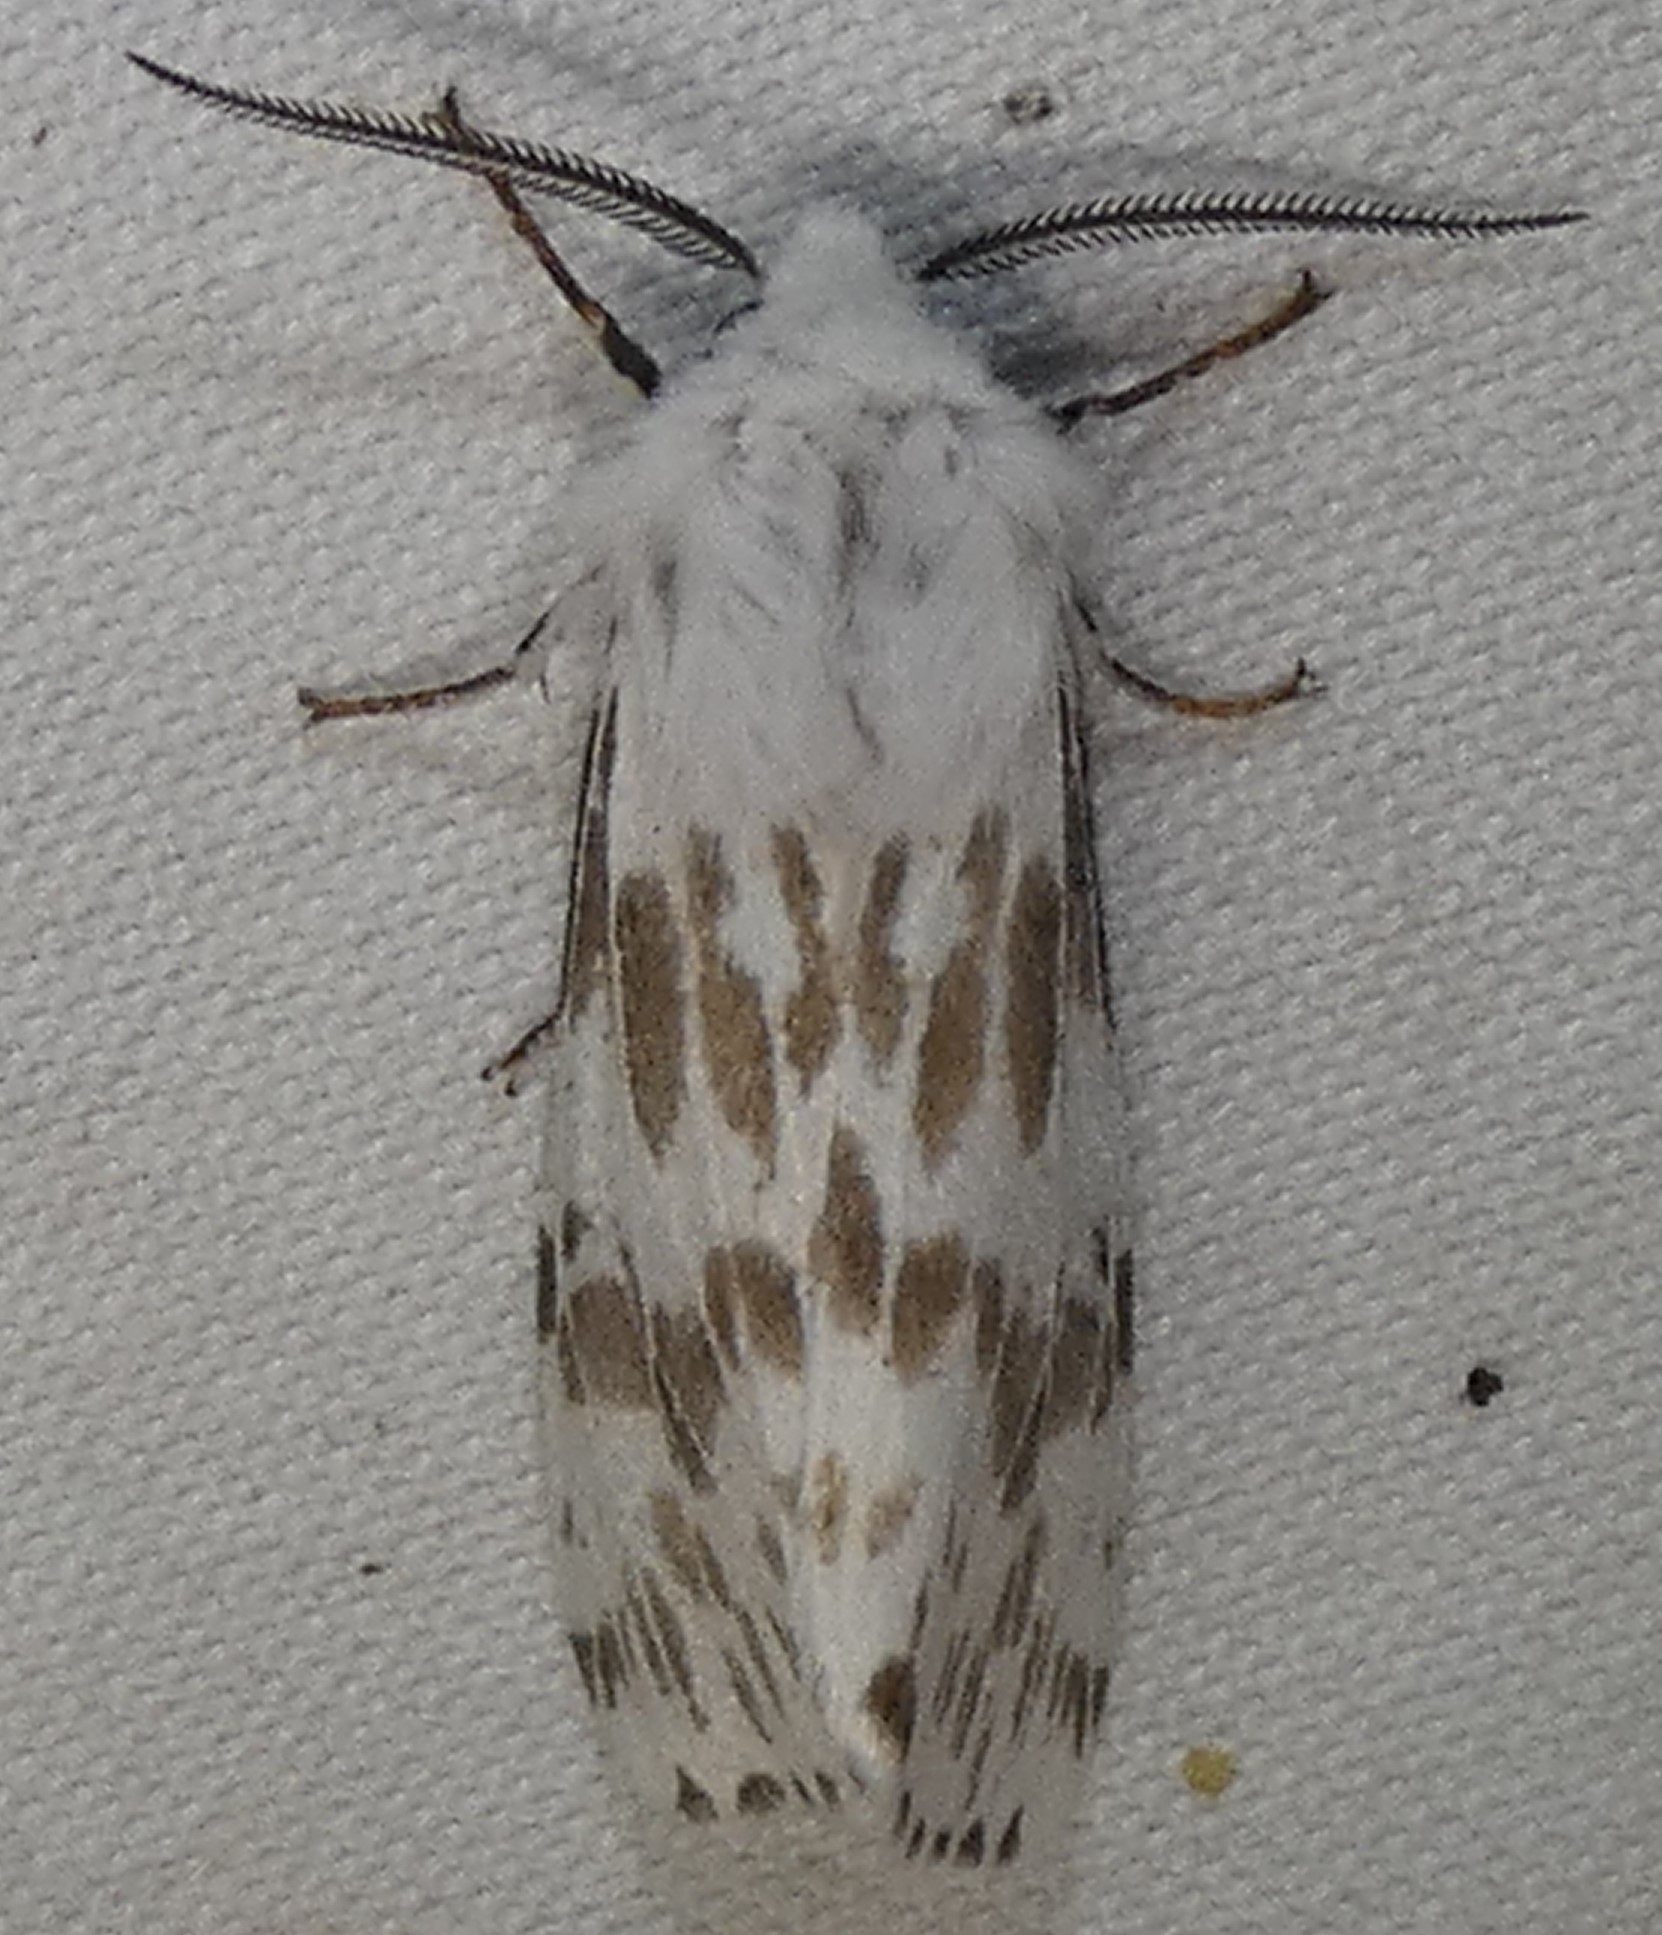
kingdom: Animalia
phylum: Arthropoda
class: Insecta
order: Lepidoptera
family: Erebidae
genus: Hyphantria
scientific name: Hyphantria cunea
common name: American white moth
